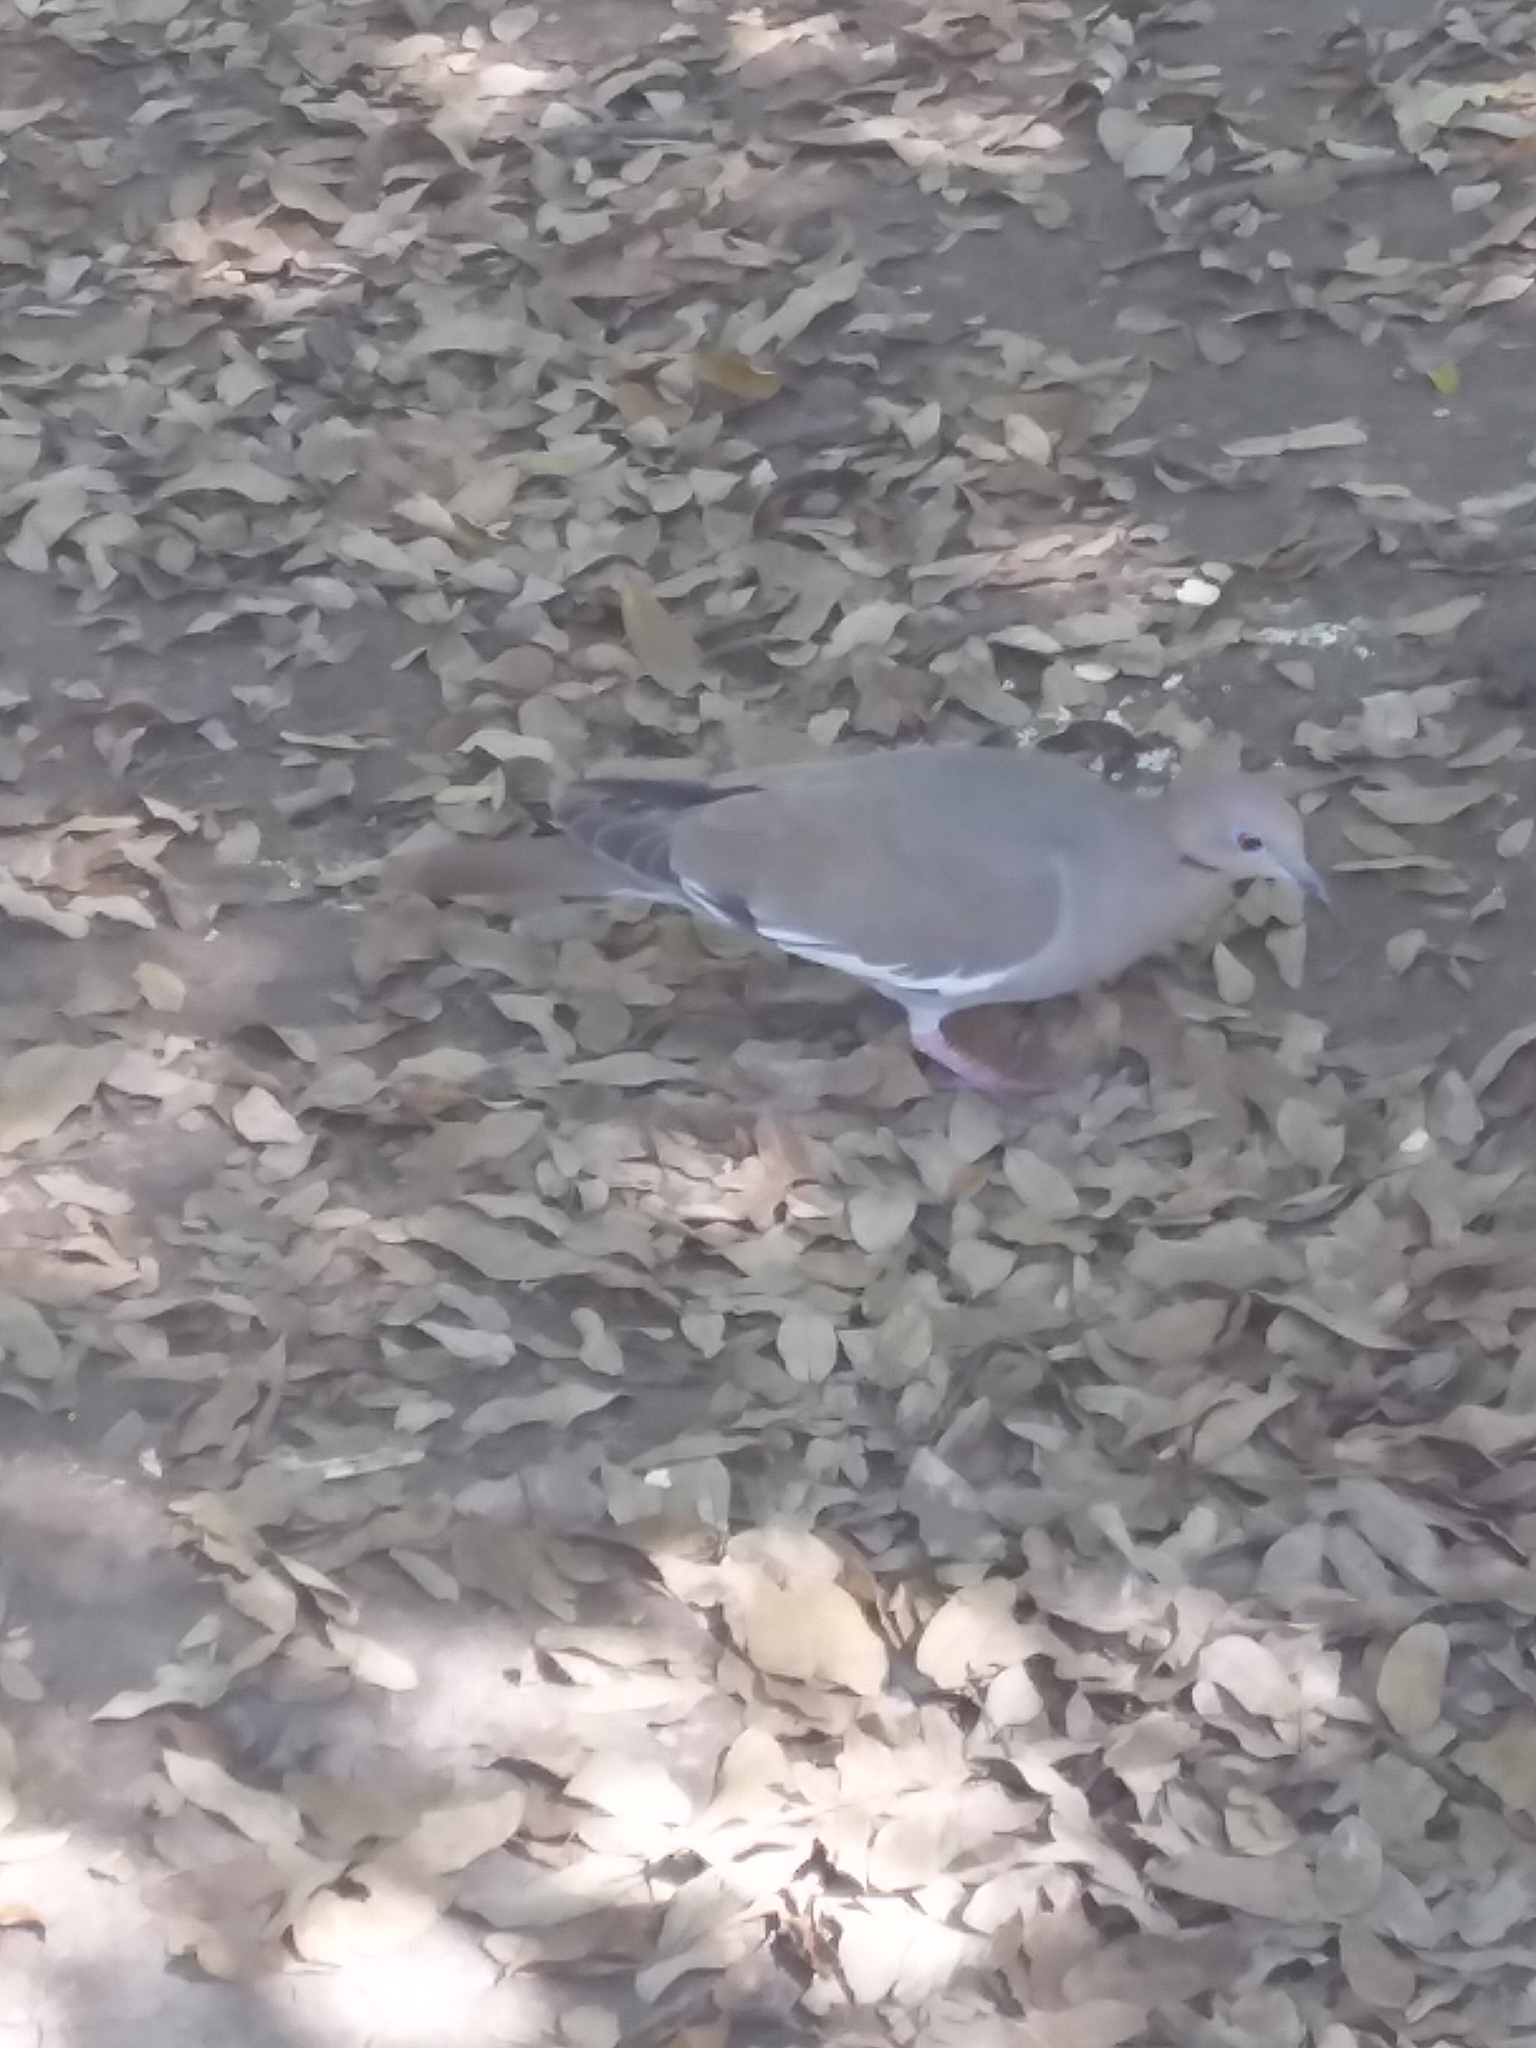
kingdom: Animalia
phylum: Chordata
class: Aves
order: Columbiformes
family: Columbidae
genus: Zenaida
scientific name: Zenaida asiatica
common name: White-winged dove
